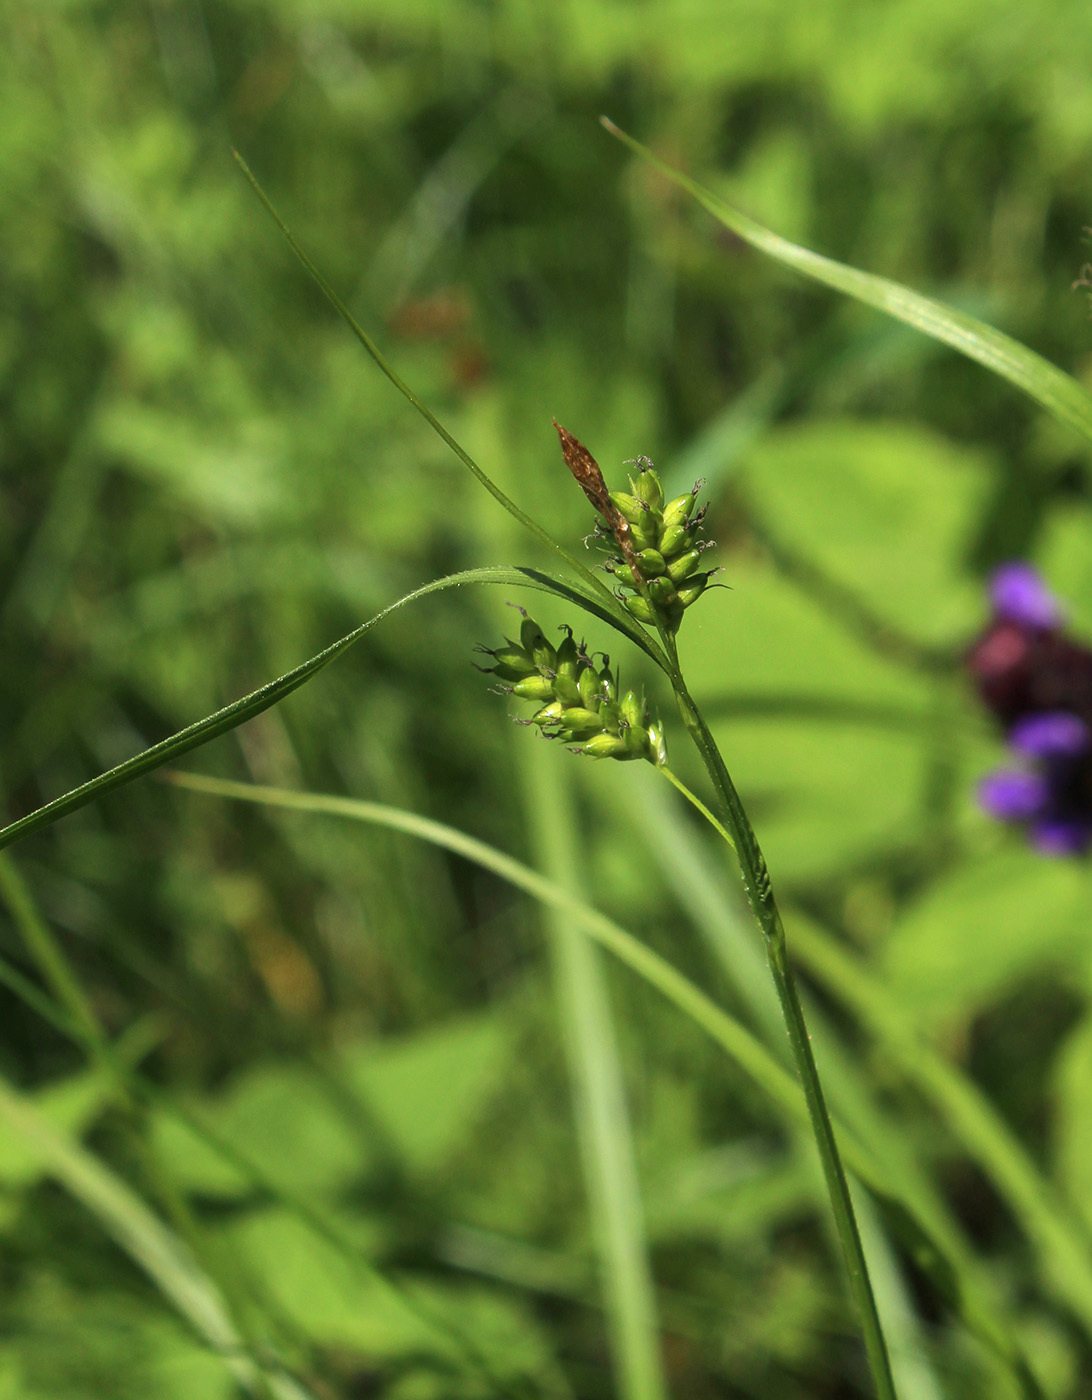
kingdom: Plantae
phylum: Tracheophyta
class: Liliopsida
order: Poales
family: Cyperaceae
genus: Carex
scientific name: Carex pallescens
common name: Pale sedge
